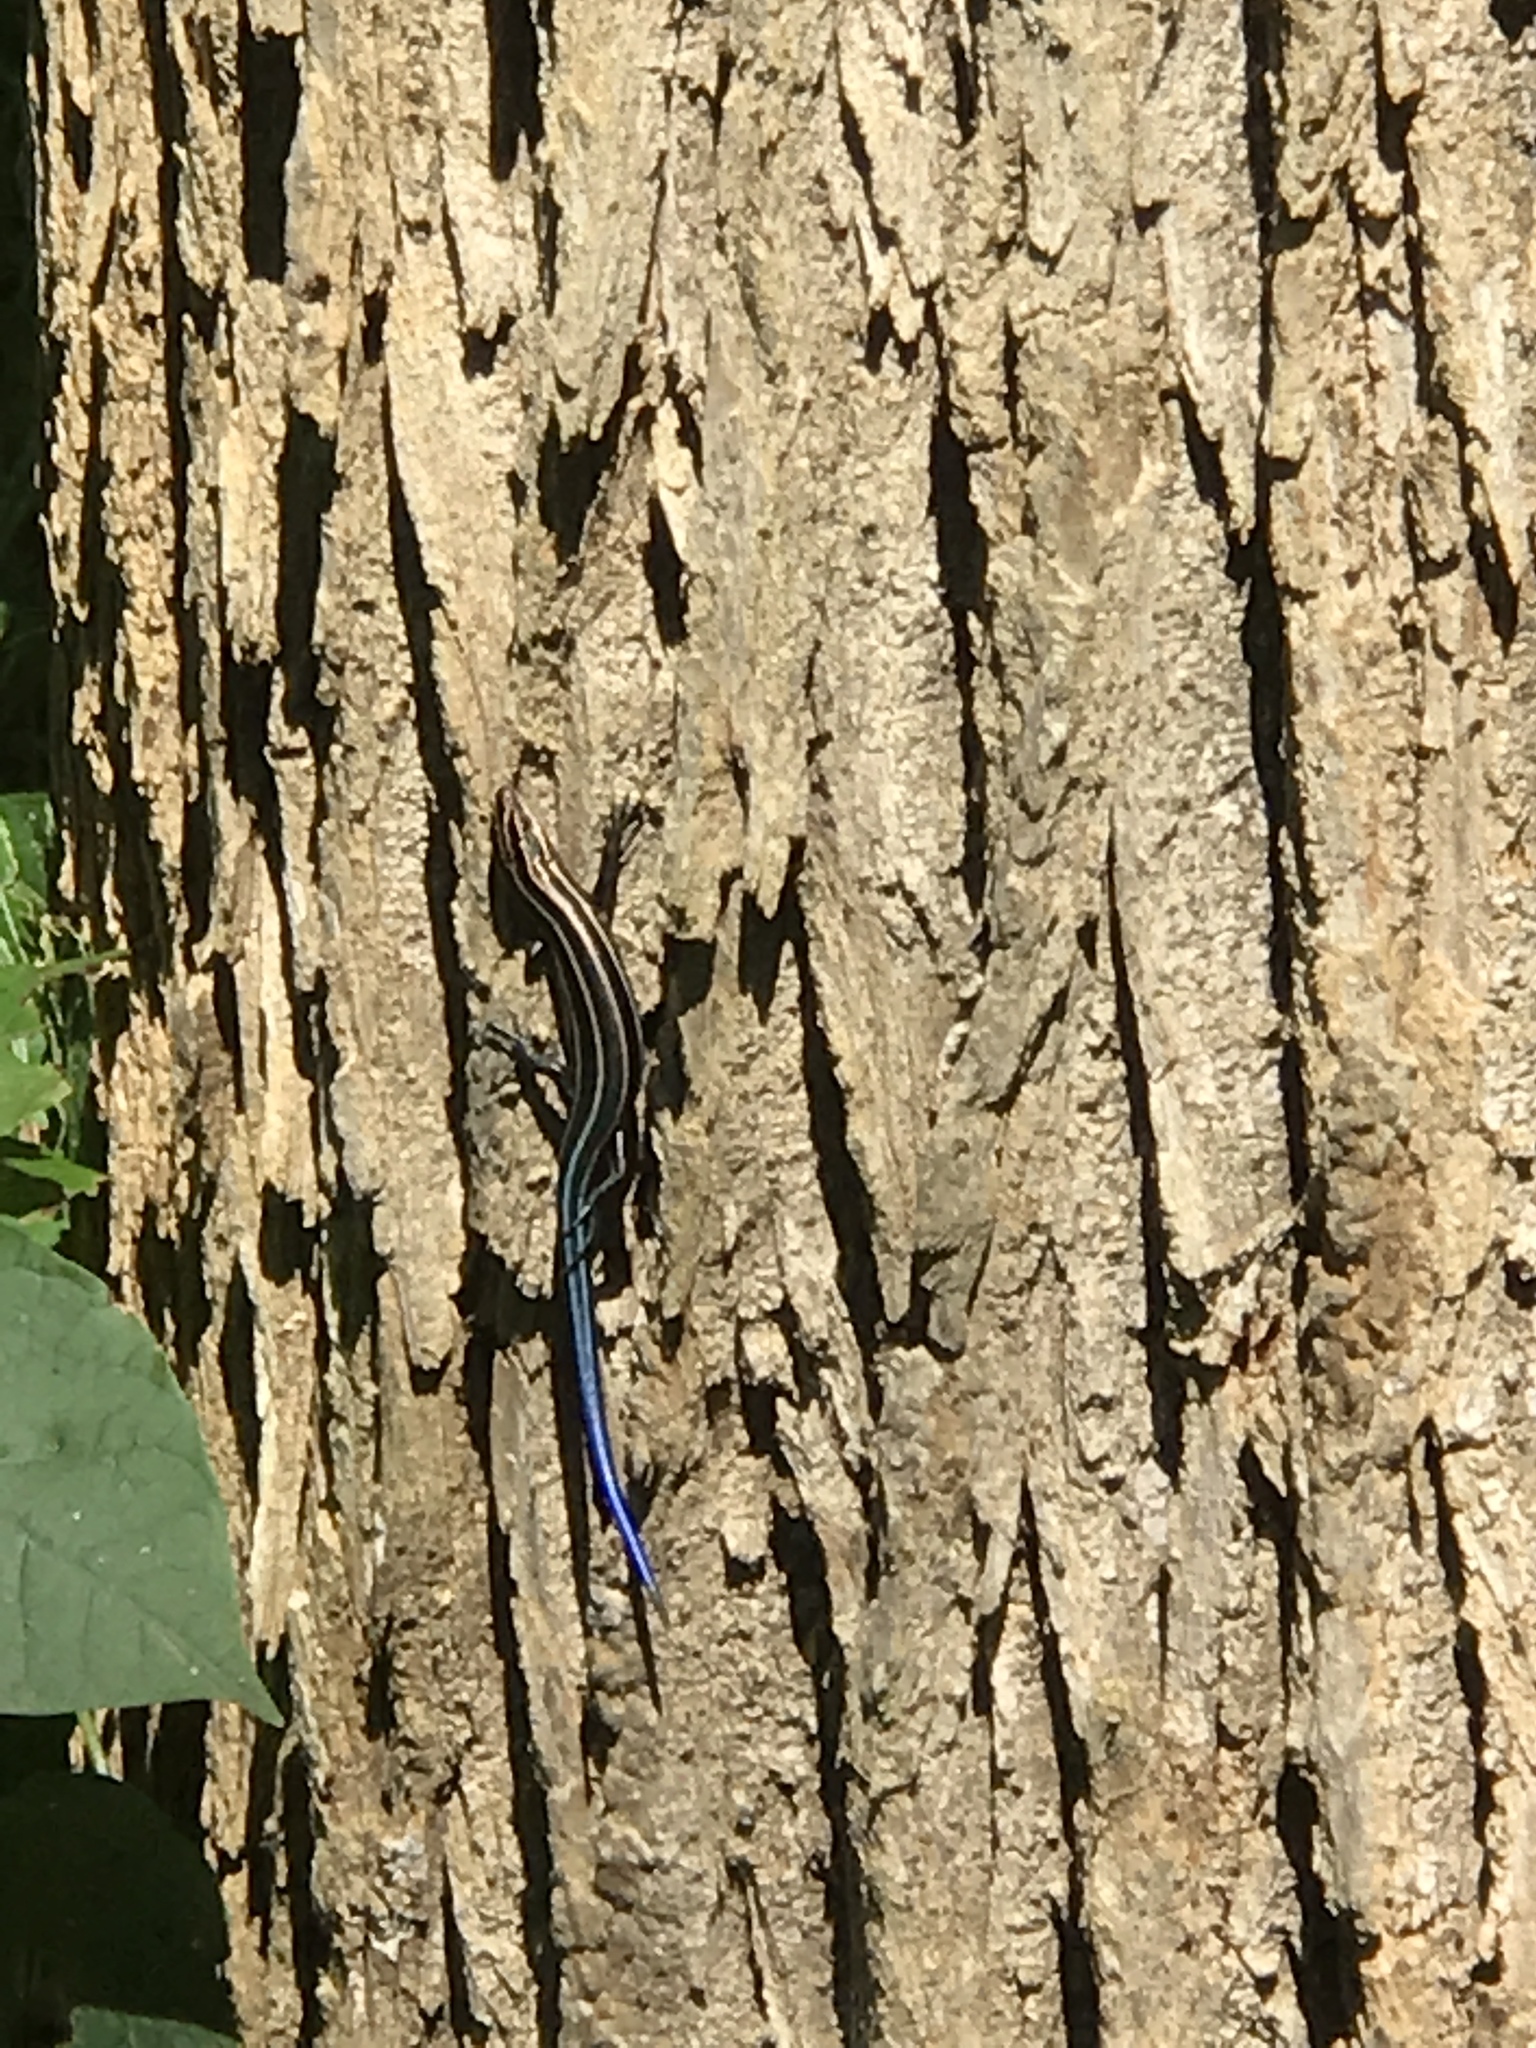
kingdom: Animalia
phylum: Chordata
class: Squamata
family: Scincidae
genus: Plestiodon
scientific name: Plestiodon fasciatus
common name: Five-lined skink
